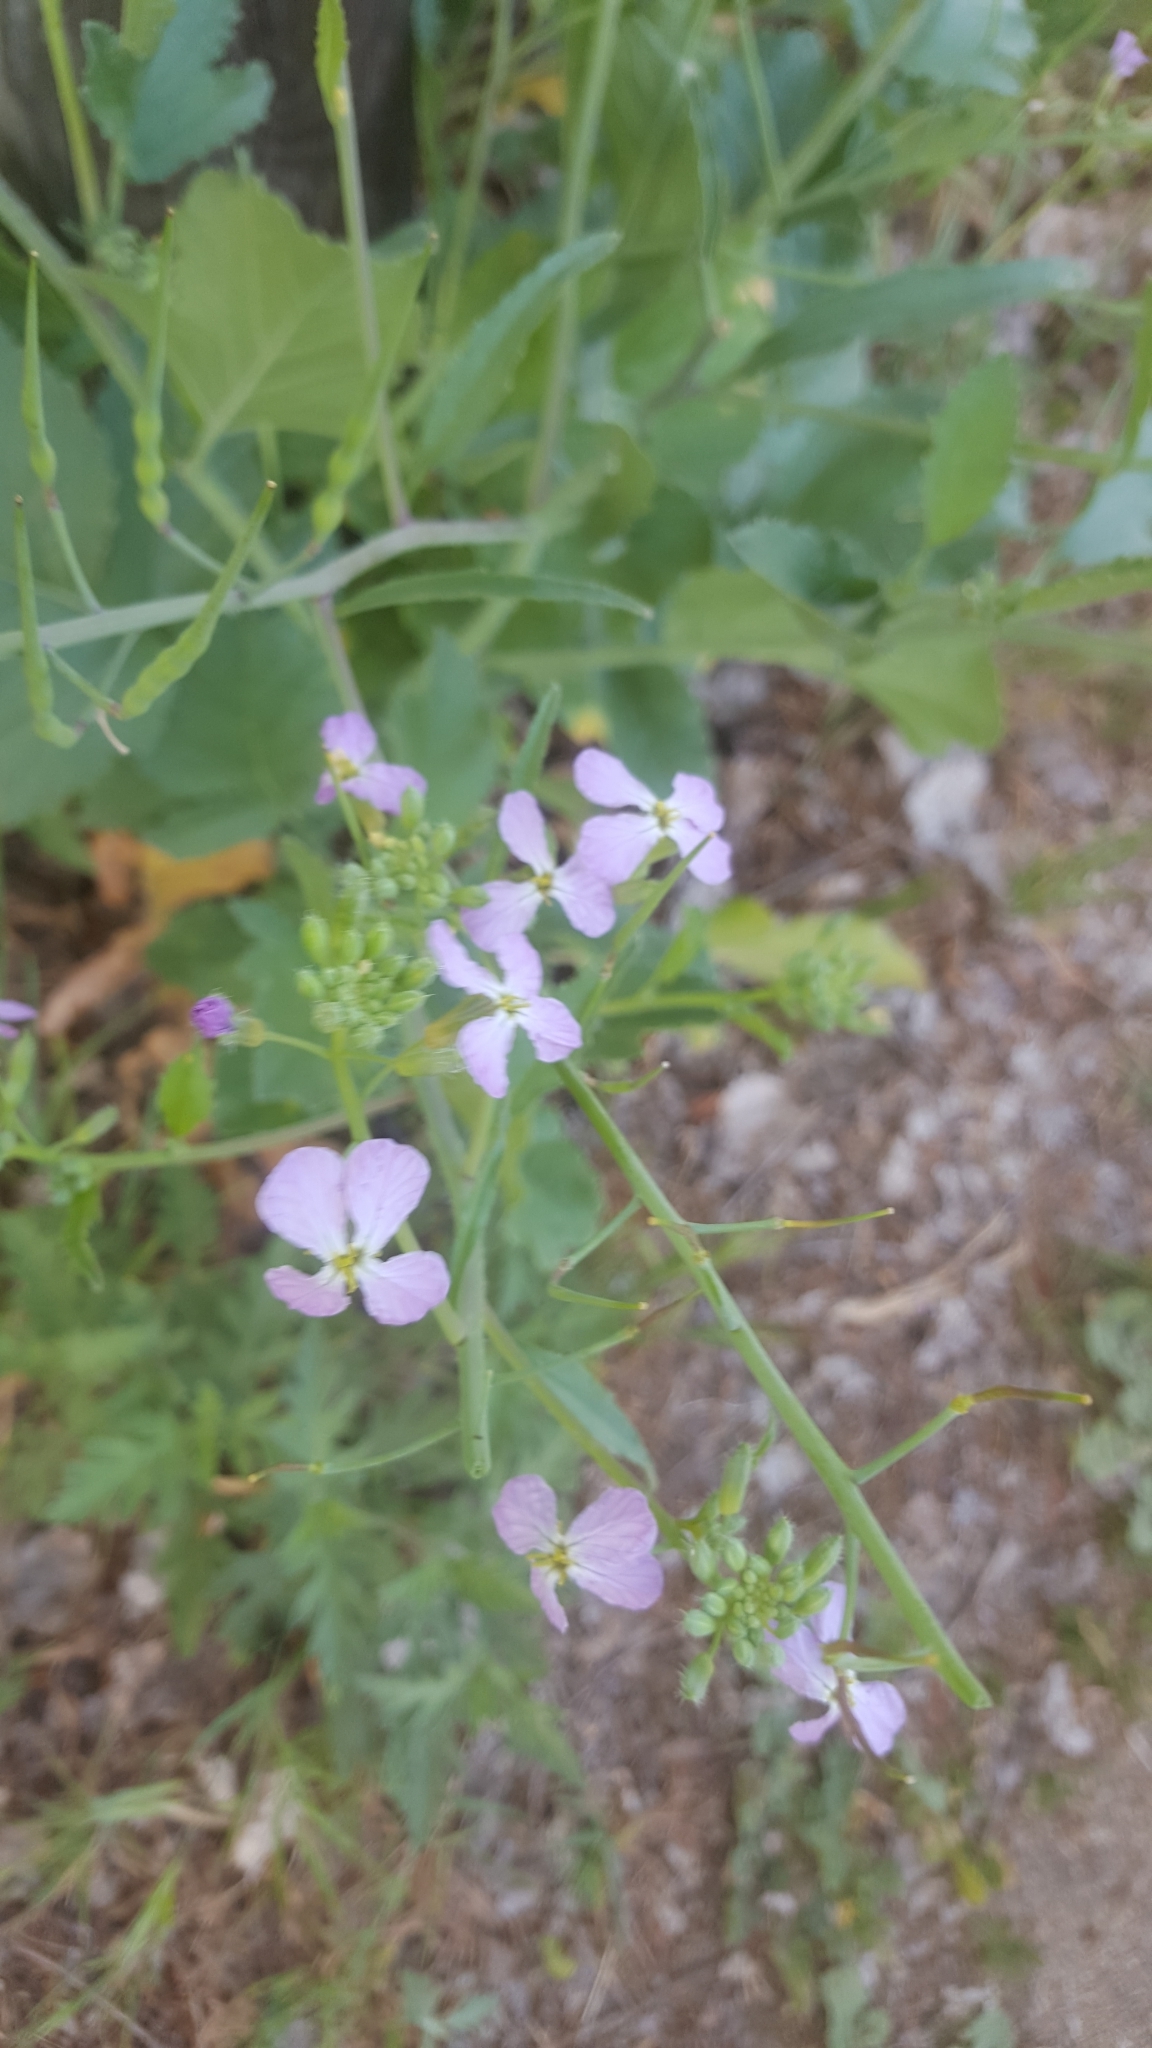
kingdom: Plantae
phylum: Tracheophyta
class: Magnoliopsida
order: Brassicales
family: Brassicaceae
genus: Raphanus
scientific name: Raphanus sativus
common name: Cultivated radish
